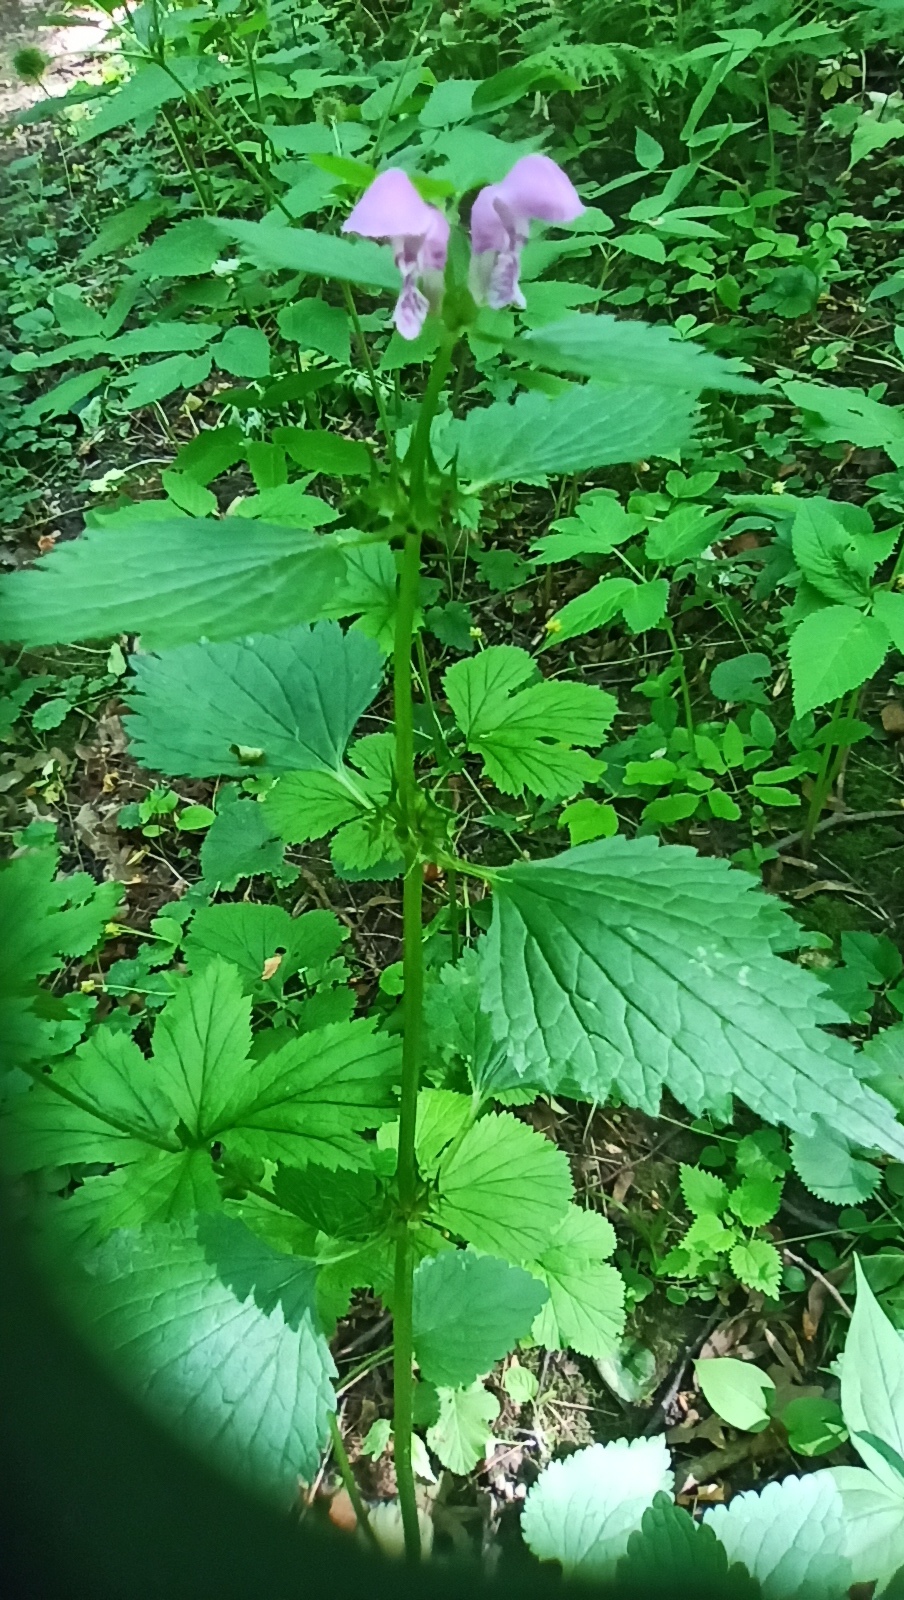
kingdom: Plantae
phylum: Tracheophyta
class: Magnoliopsida
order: Lamiales
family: Lamiaceae
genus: Lamium
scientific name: Lamium maculatum
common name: Spotted dead-nettle
